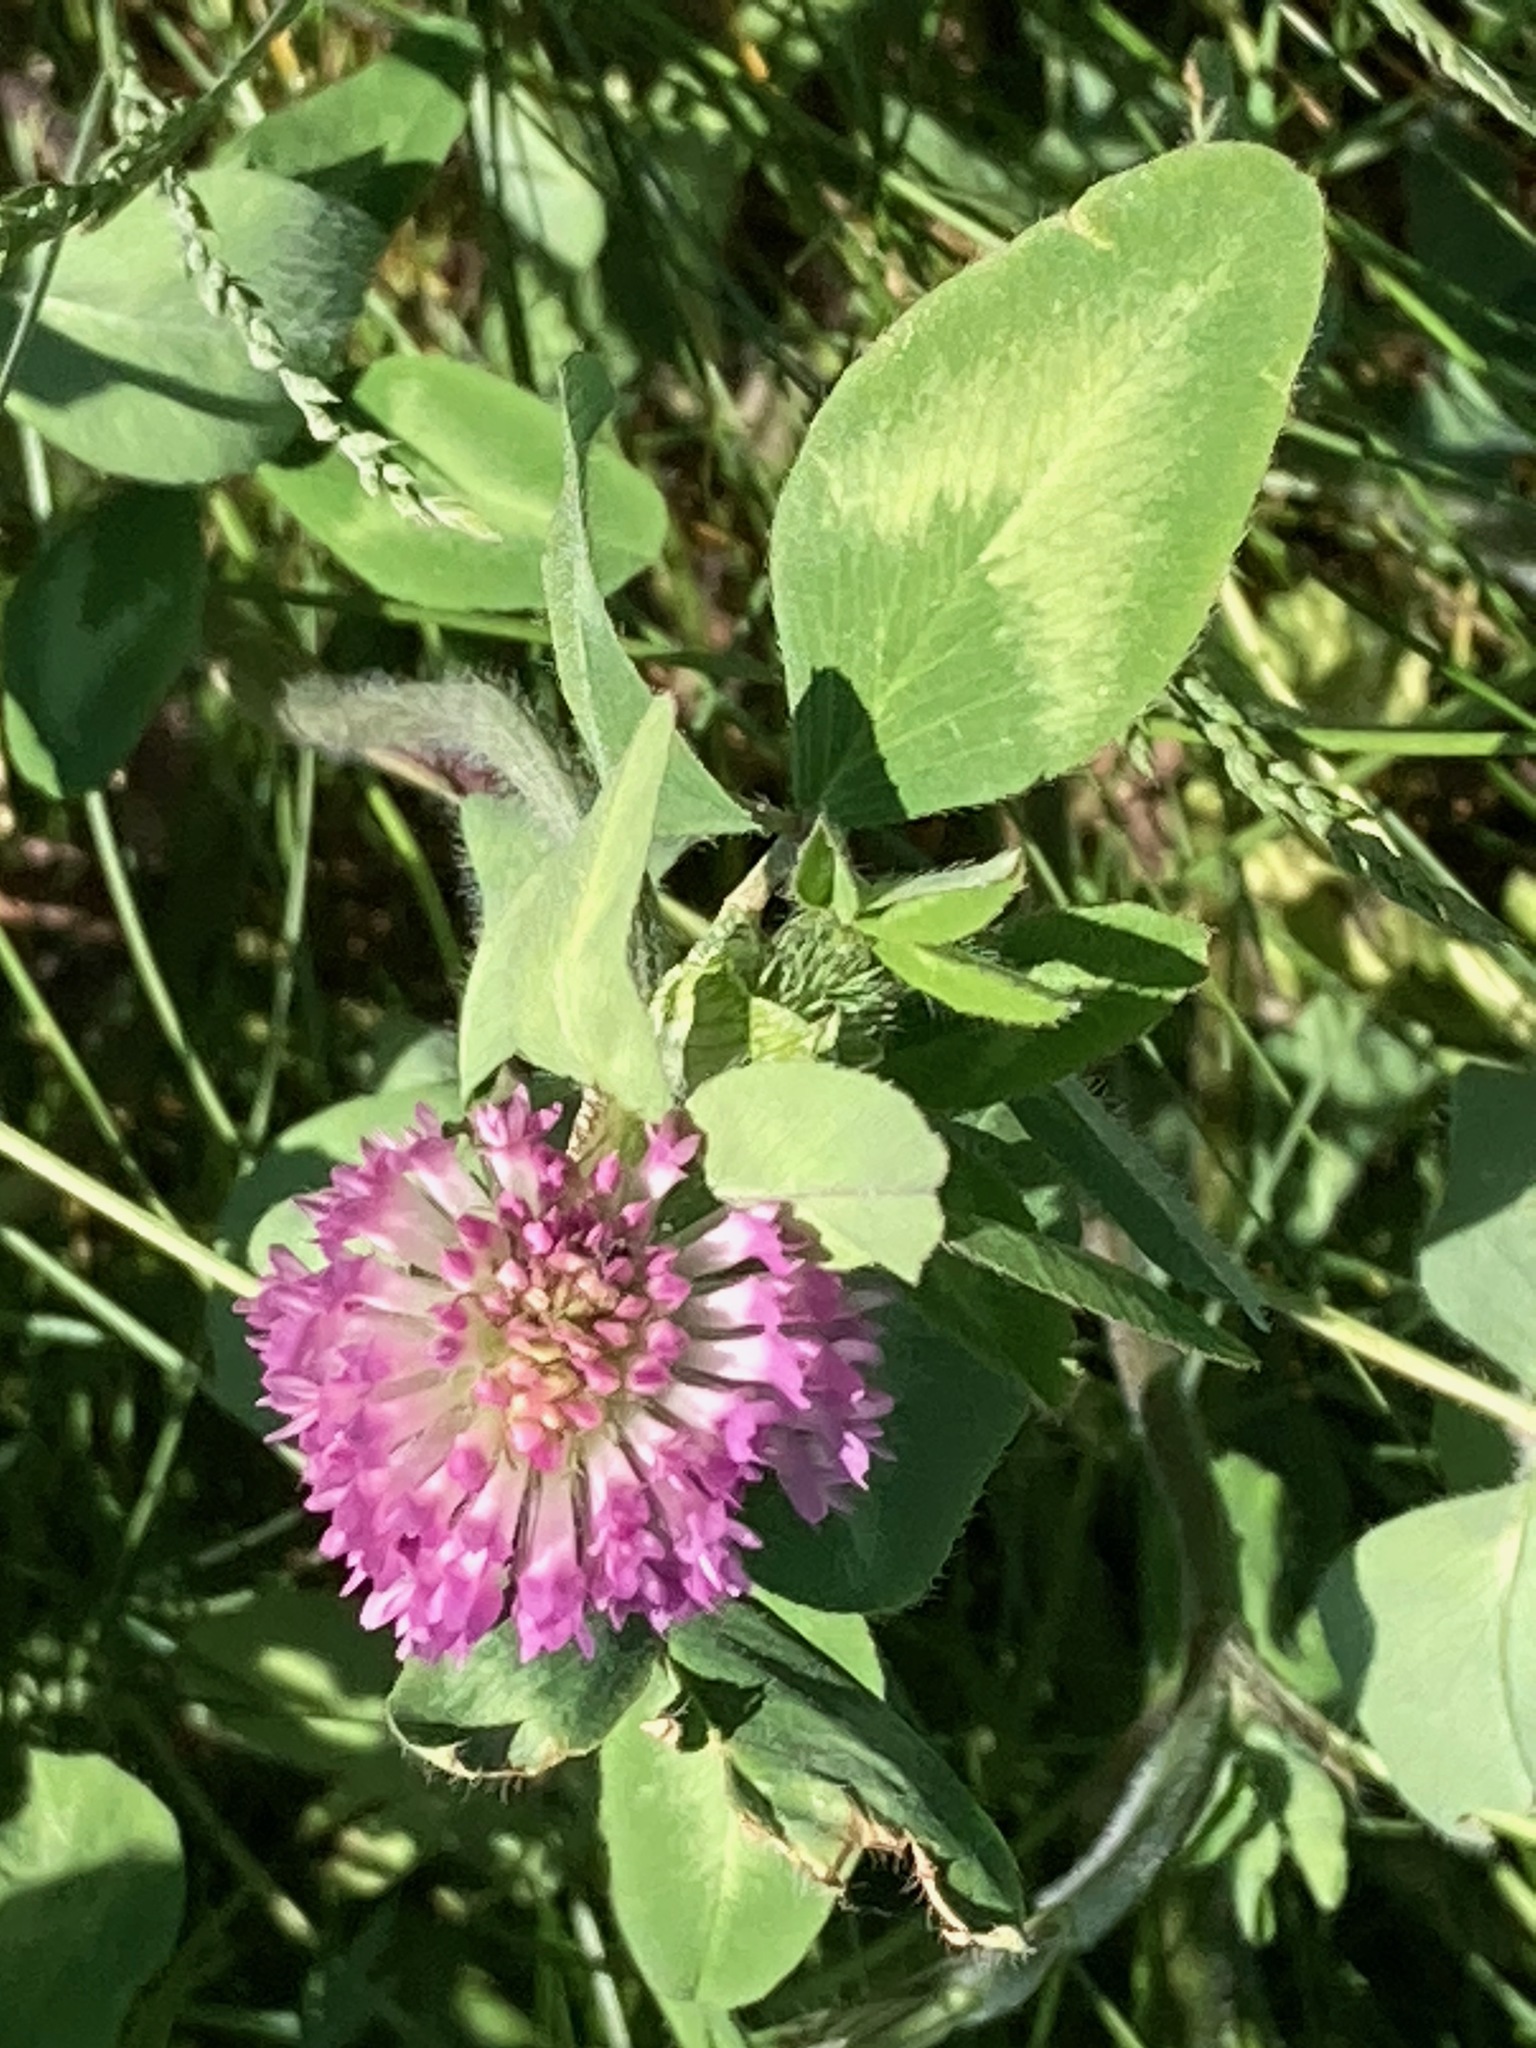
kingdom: Plantae
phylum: Tracheophyta
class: Magnoliopsida
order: Fabales
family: Fabaceae
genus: Trifolium
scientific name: Trifolium pratense
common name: Red clover
